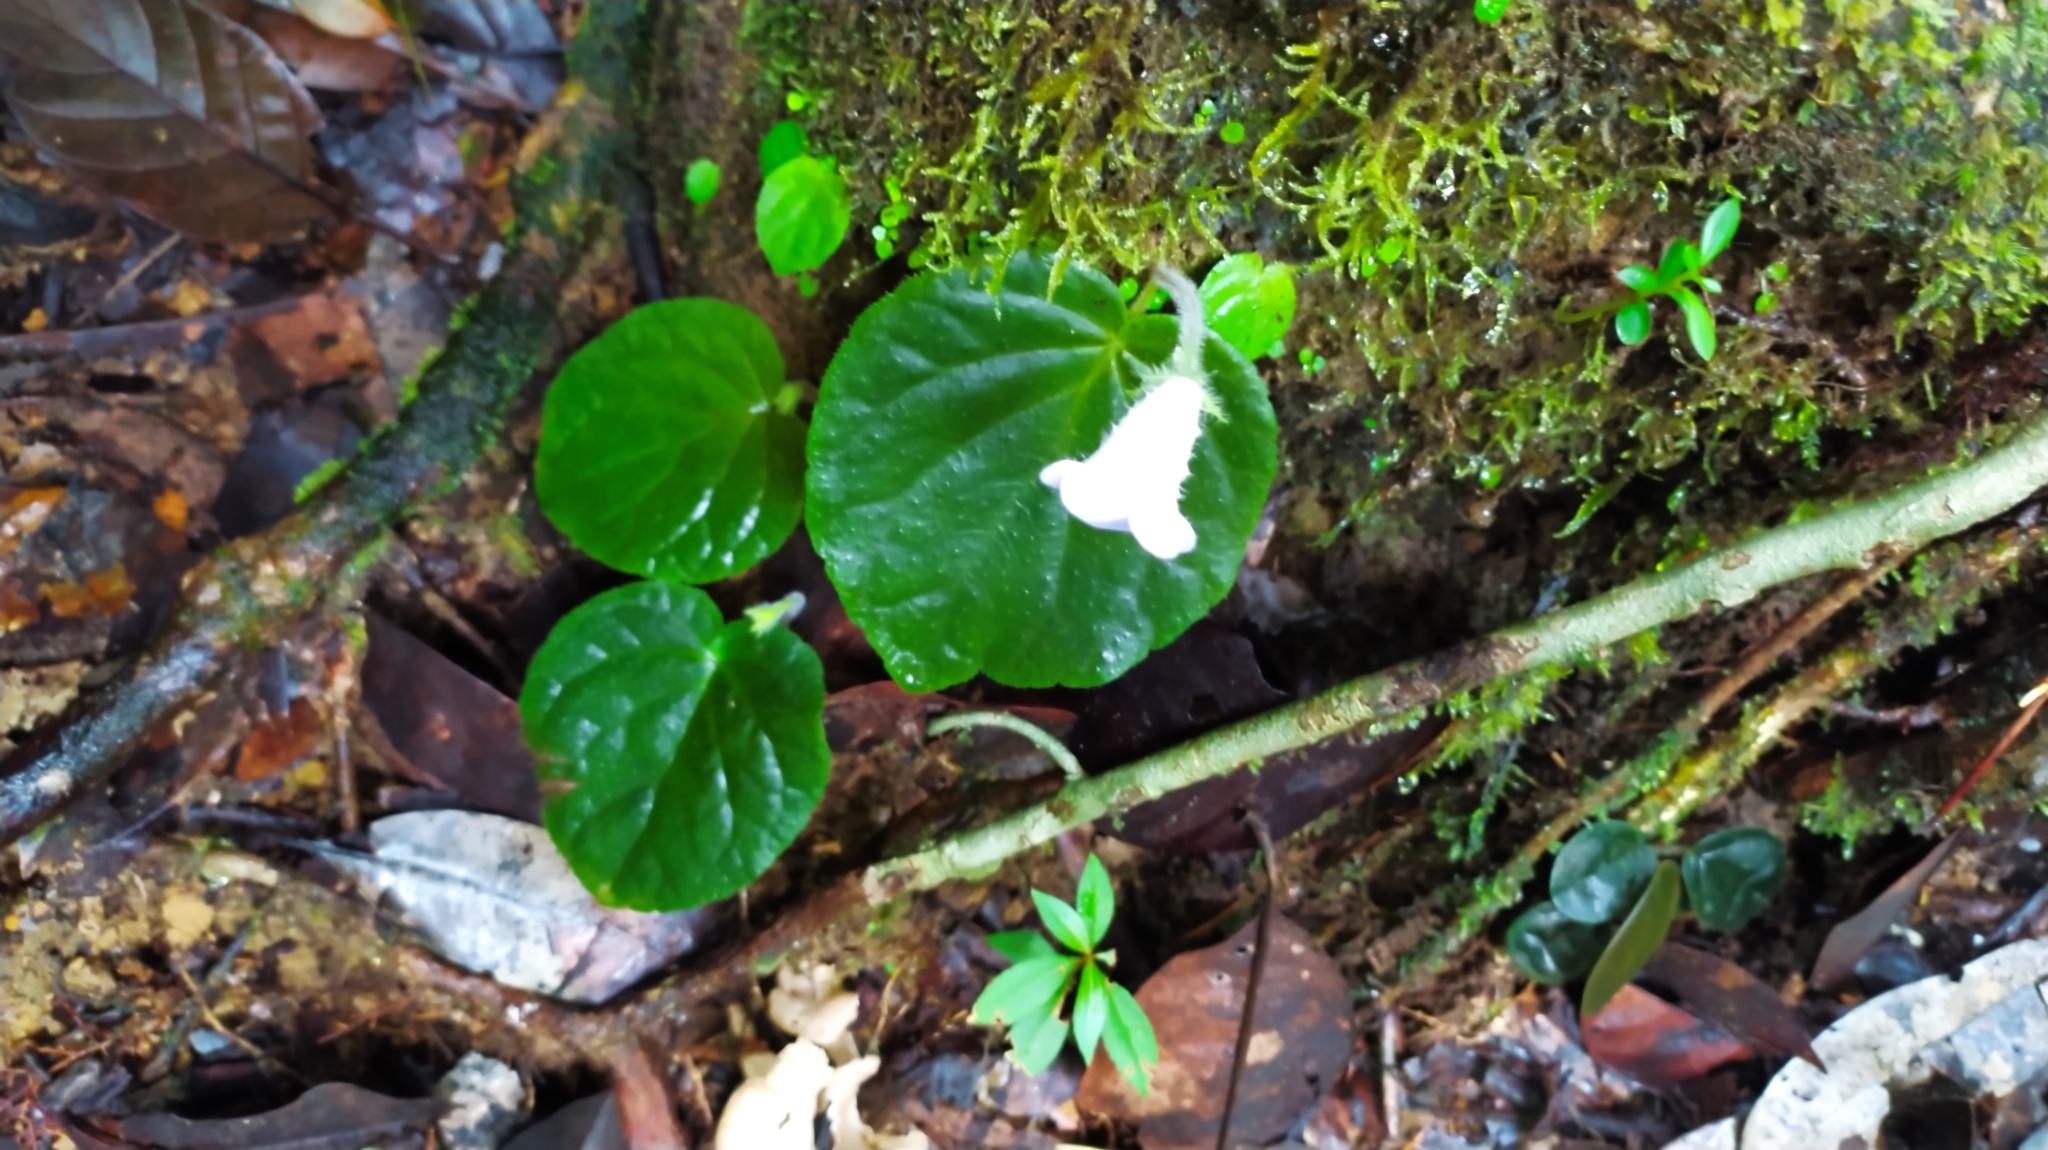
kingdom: Plantae
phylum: Tracheophyta
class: Magnoliopsida
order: Lamiales
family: Gesneriaceae
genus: Lembocarpus
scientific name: Lembocarpus amoenus
